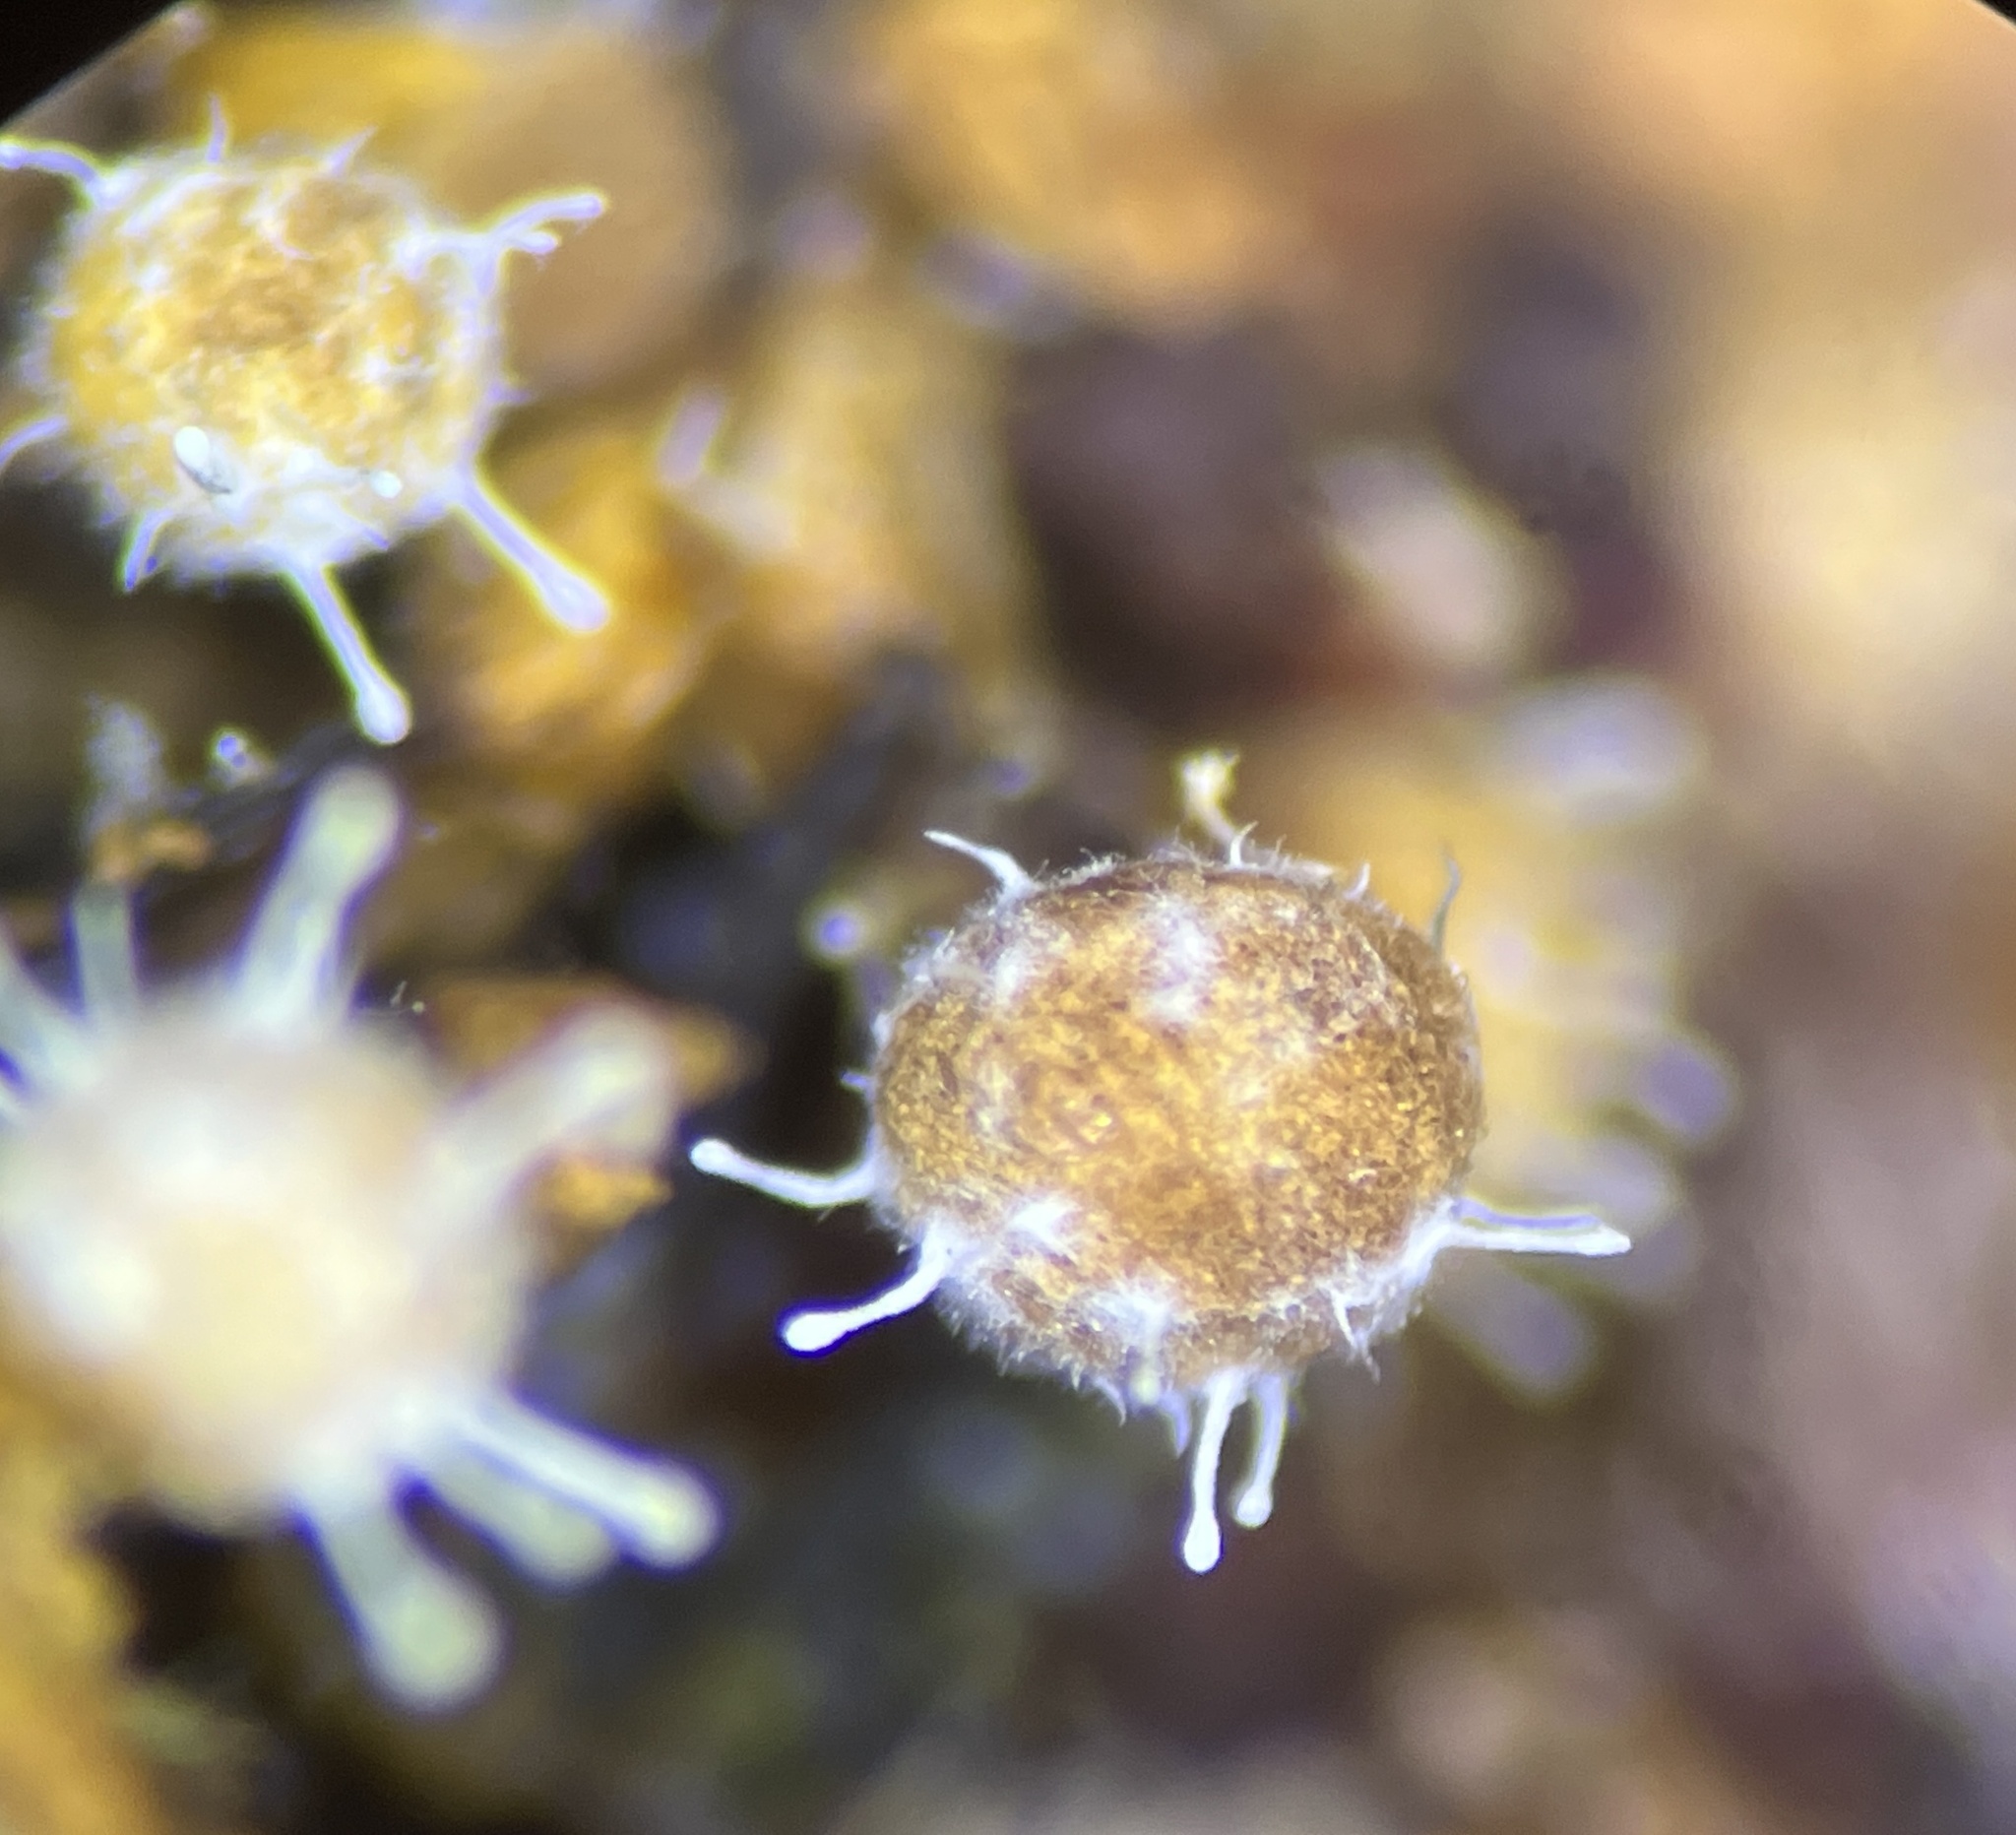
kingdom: Fungi
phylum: Ascomycota
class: Sordariomycetes
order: Hypocreales
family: Ophiocordycipitaceae
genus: Polycephalomyces
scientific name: Polycephalomyces tomentosus
